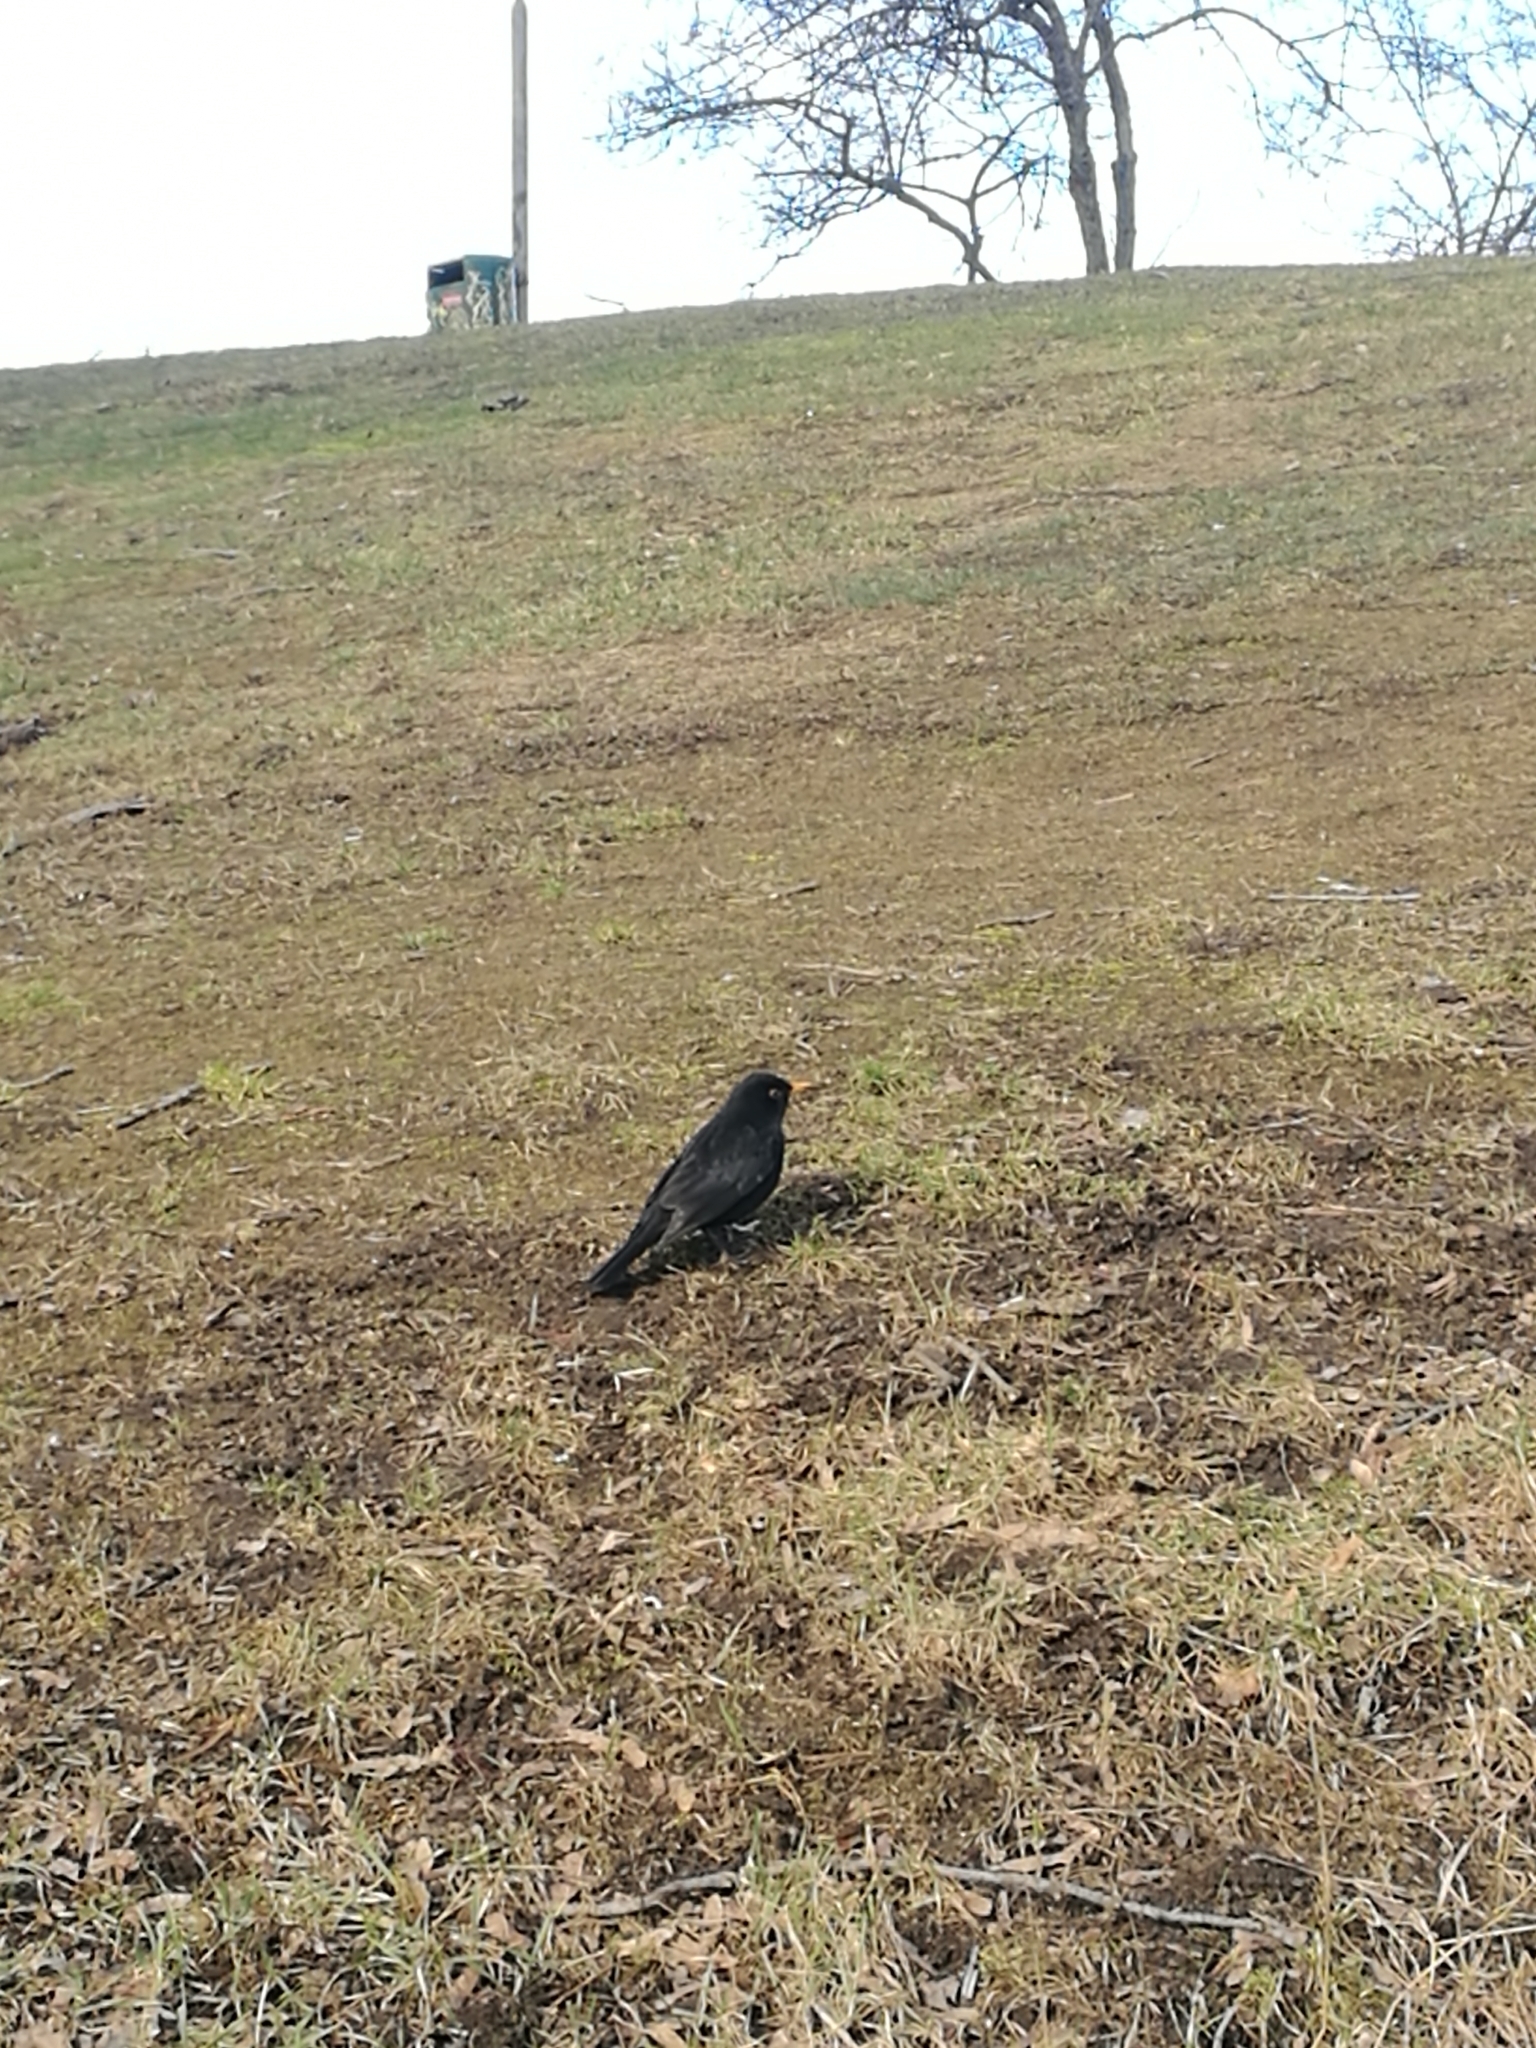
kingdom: Animalia
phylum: Chordata
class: Aves
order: Passeriformes
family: Turdidae
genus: Turdus
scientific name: Turdus merula
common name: Common blackbird
